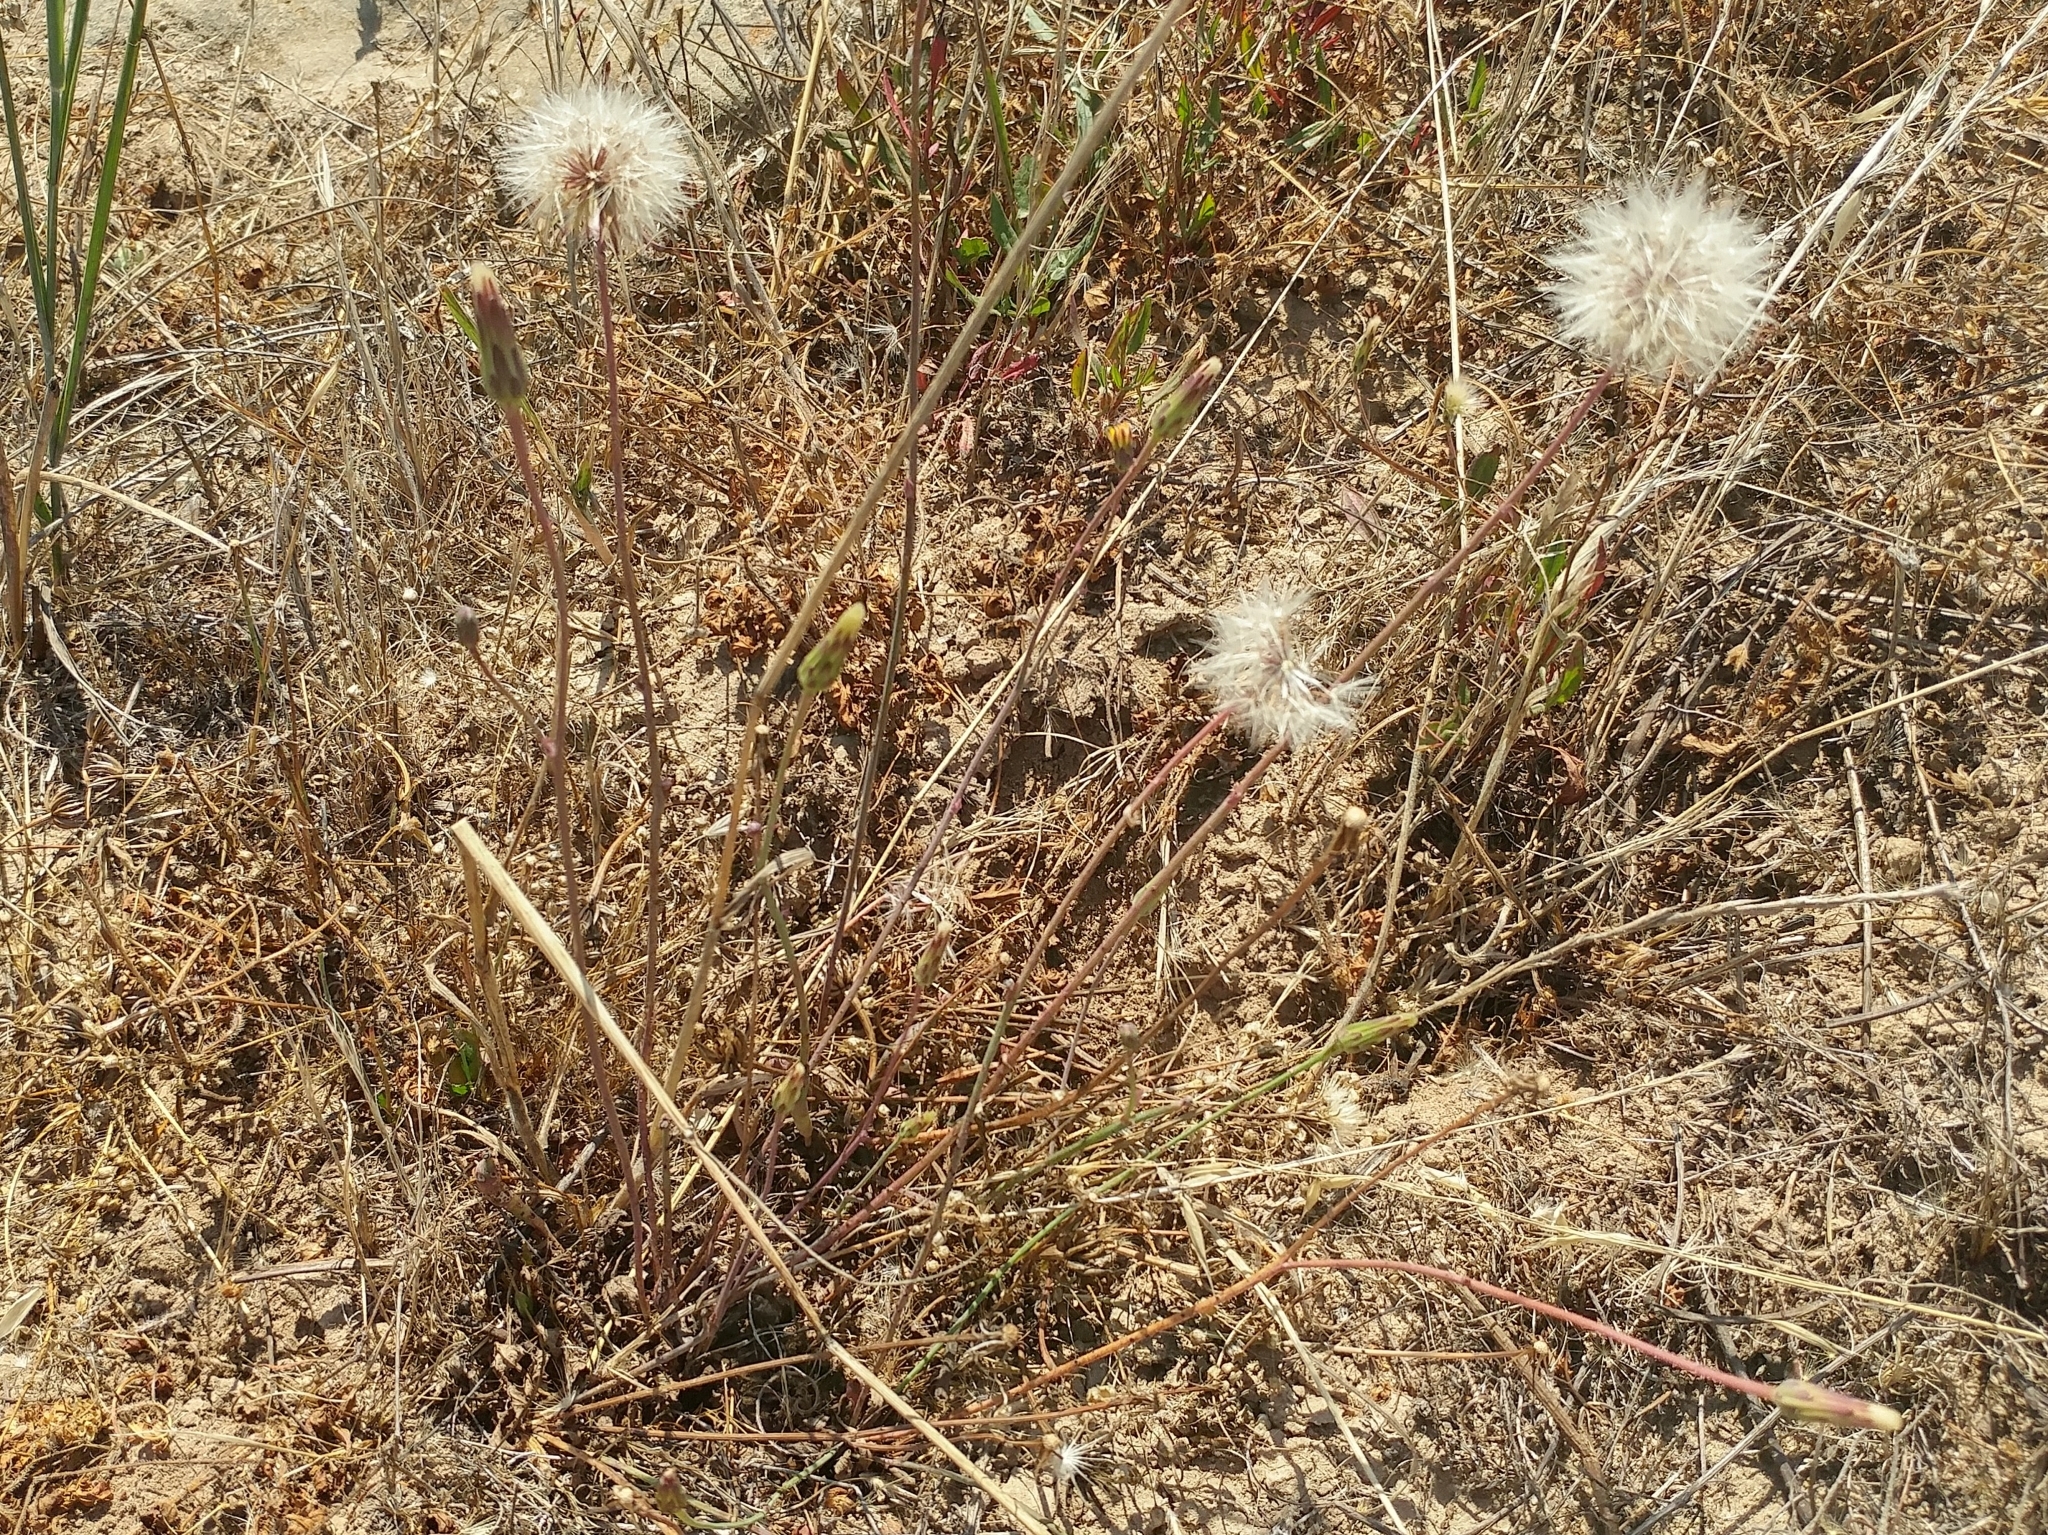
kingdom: Plantae
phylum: Tracheophyta
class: Magnoliopsida
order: Asterales
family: Asteraceae
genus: Hypochaeris
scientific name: Hypochaeris glabra
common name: Smooth catsear
